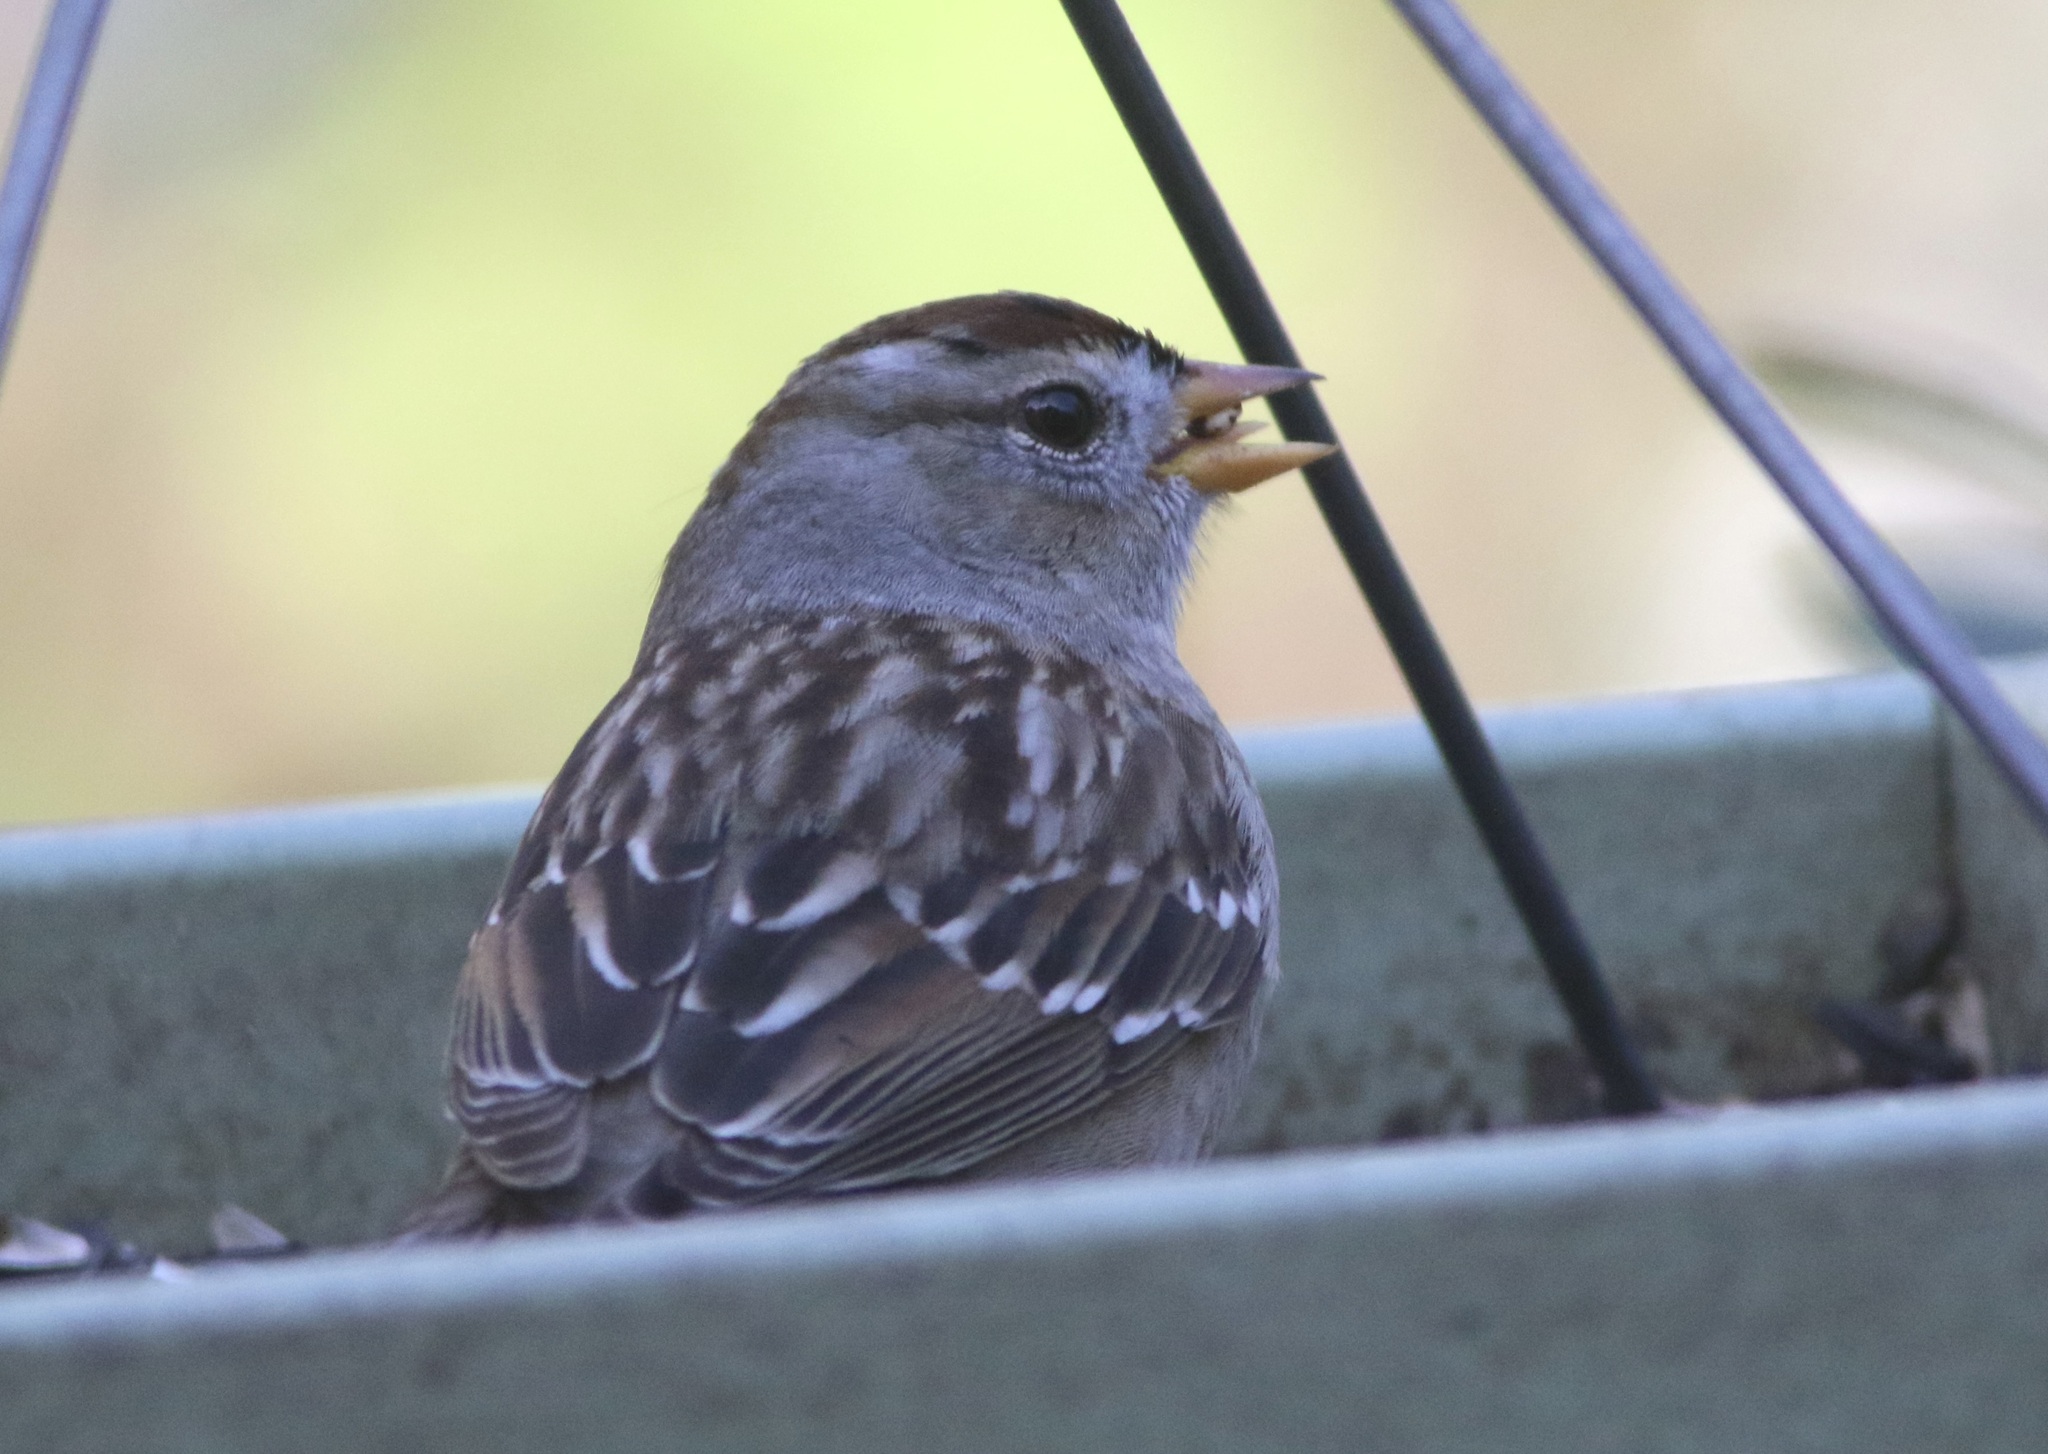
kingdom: Animalia
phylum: Chordata
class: Aves
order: Passeriformes
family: Passerellidae
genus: Zonotrichia
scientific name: Zonotrichia leucophrys
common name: White-crowned sparrow
